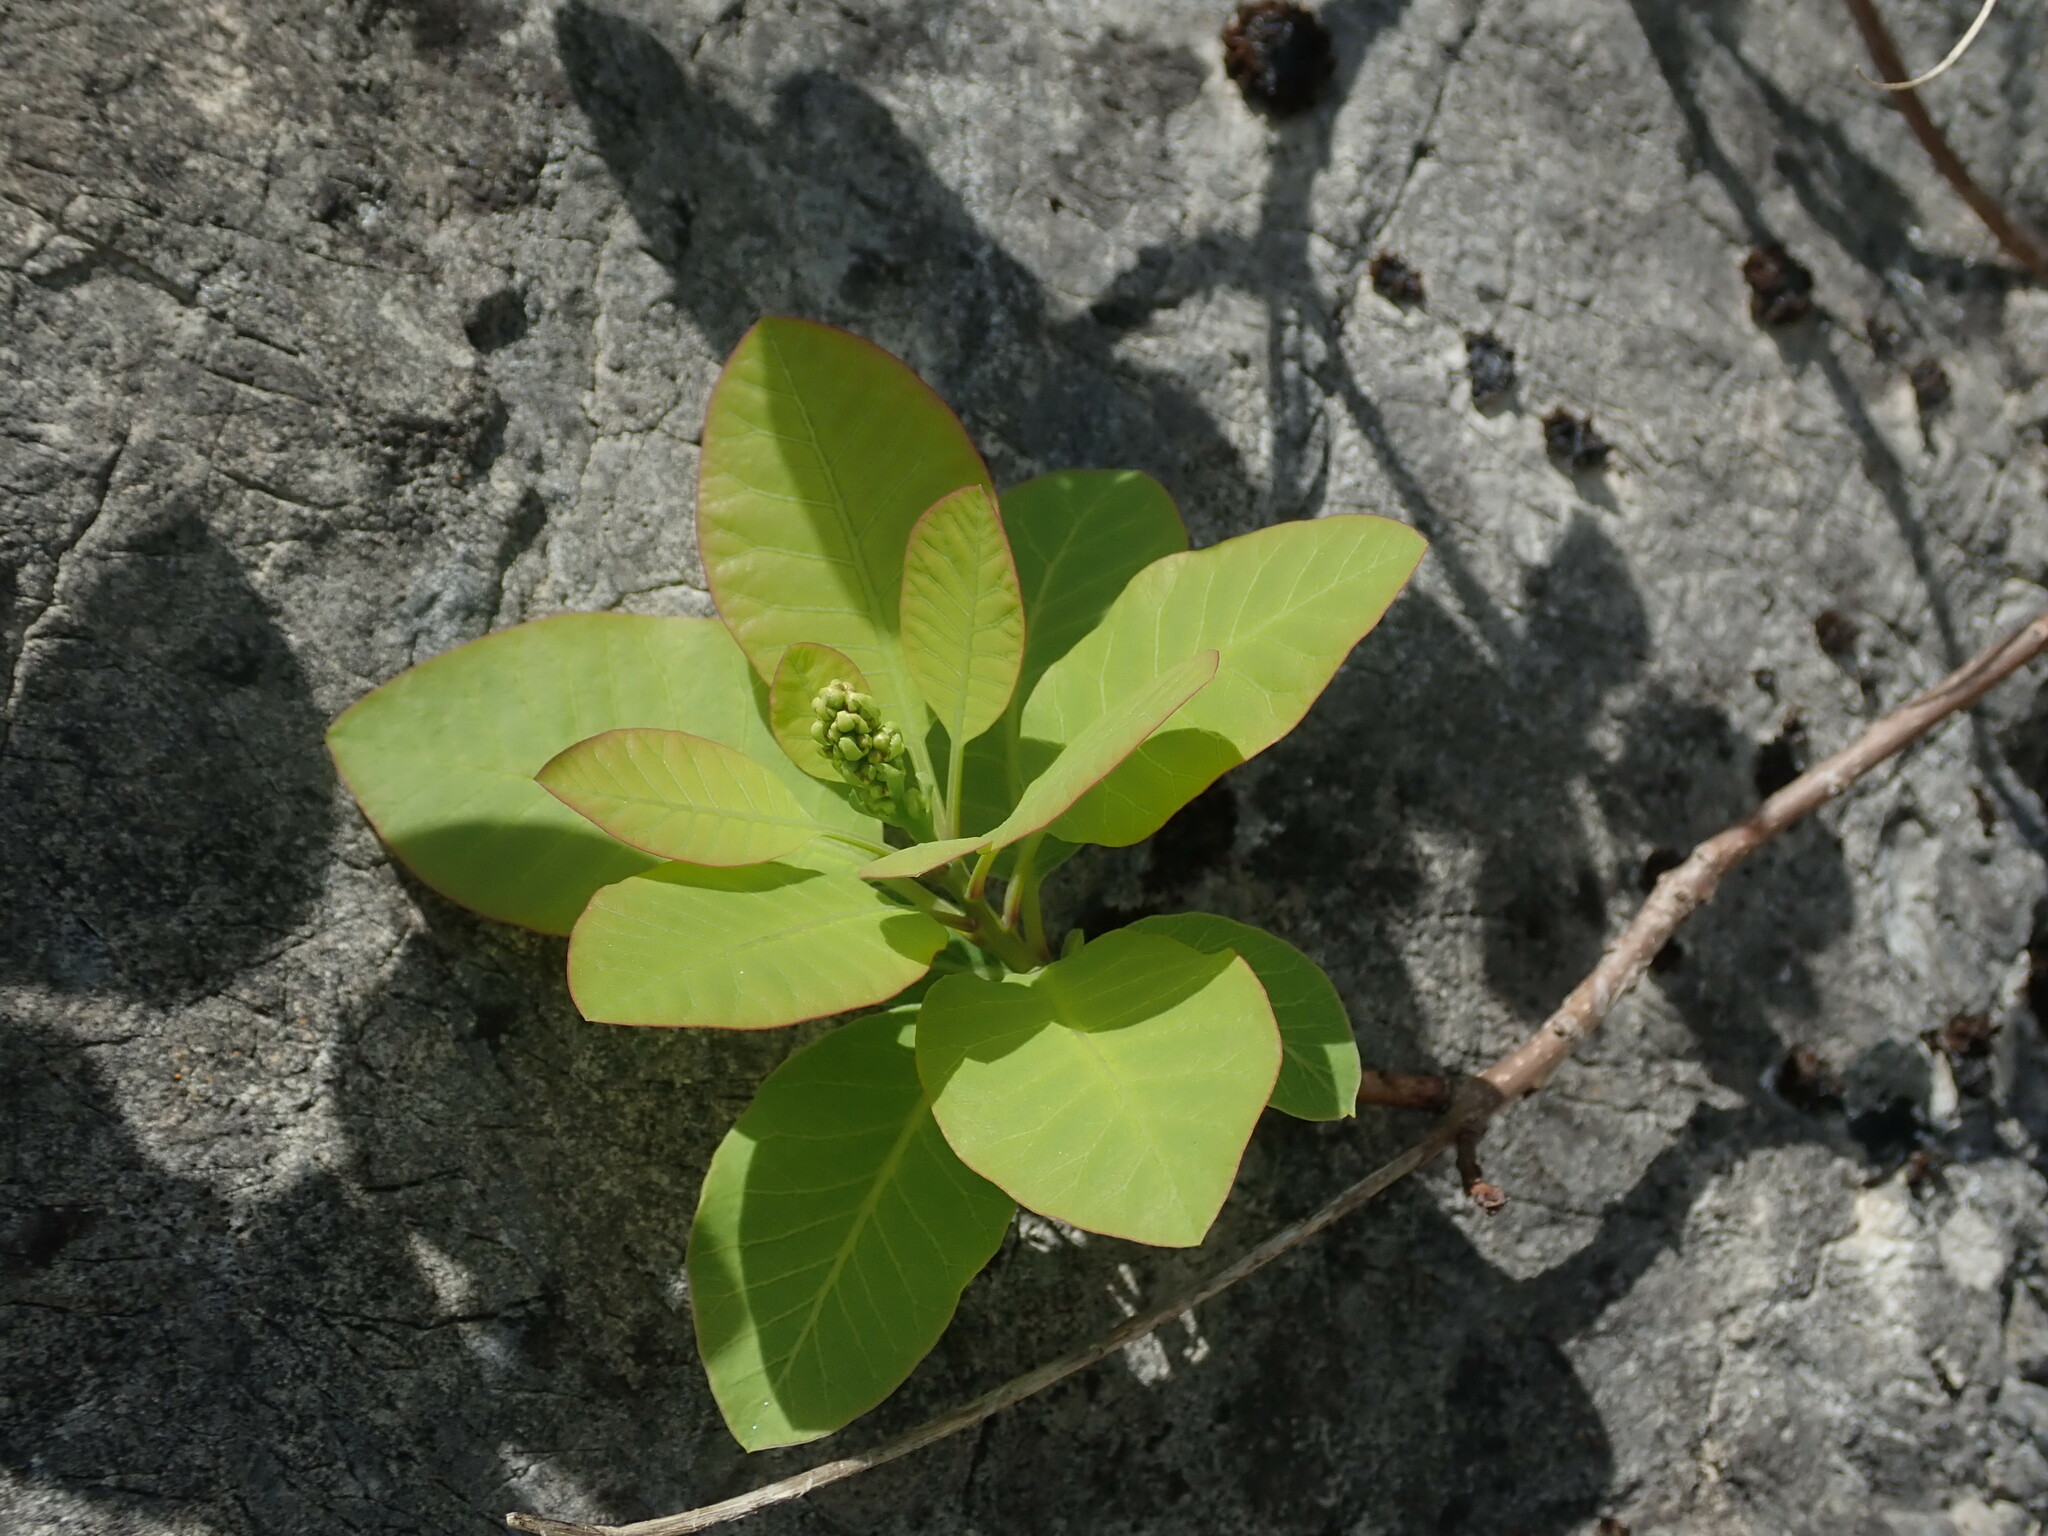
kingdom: Plantae
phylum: Tracheophyta
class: Magnoliopsida
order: Sapindales
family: Anacardiaceae
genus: Cotinus
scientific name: Cotinus coggygria
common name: Smoke-tree
